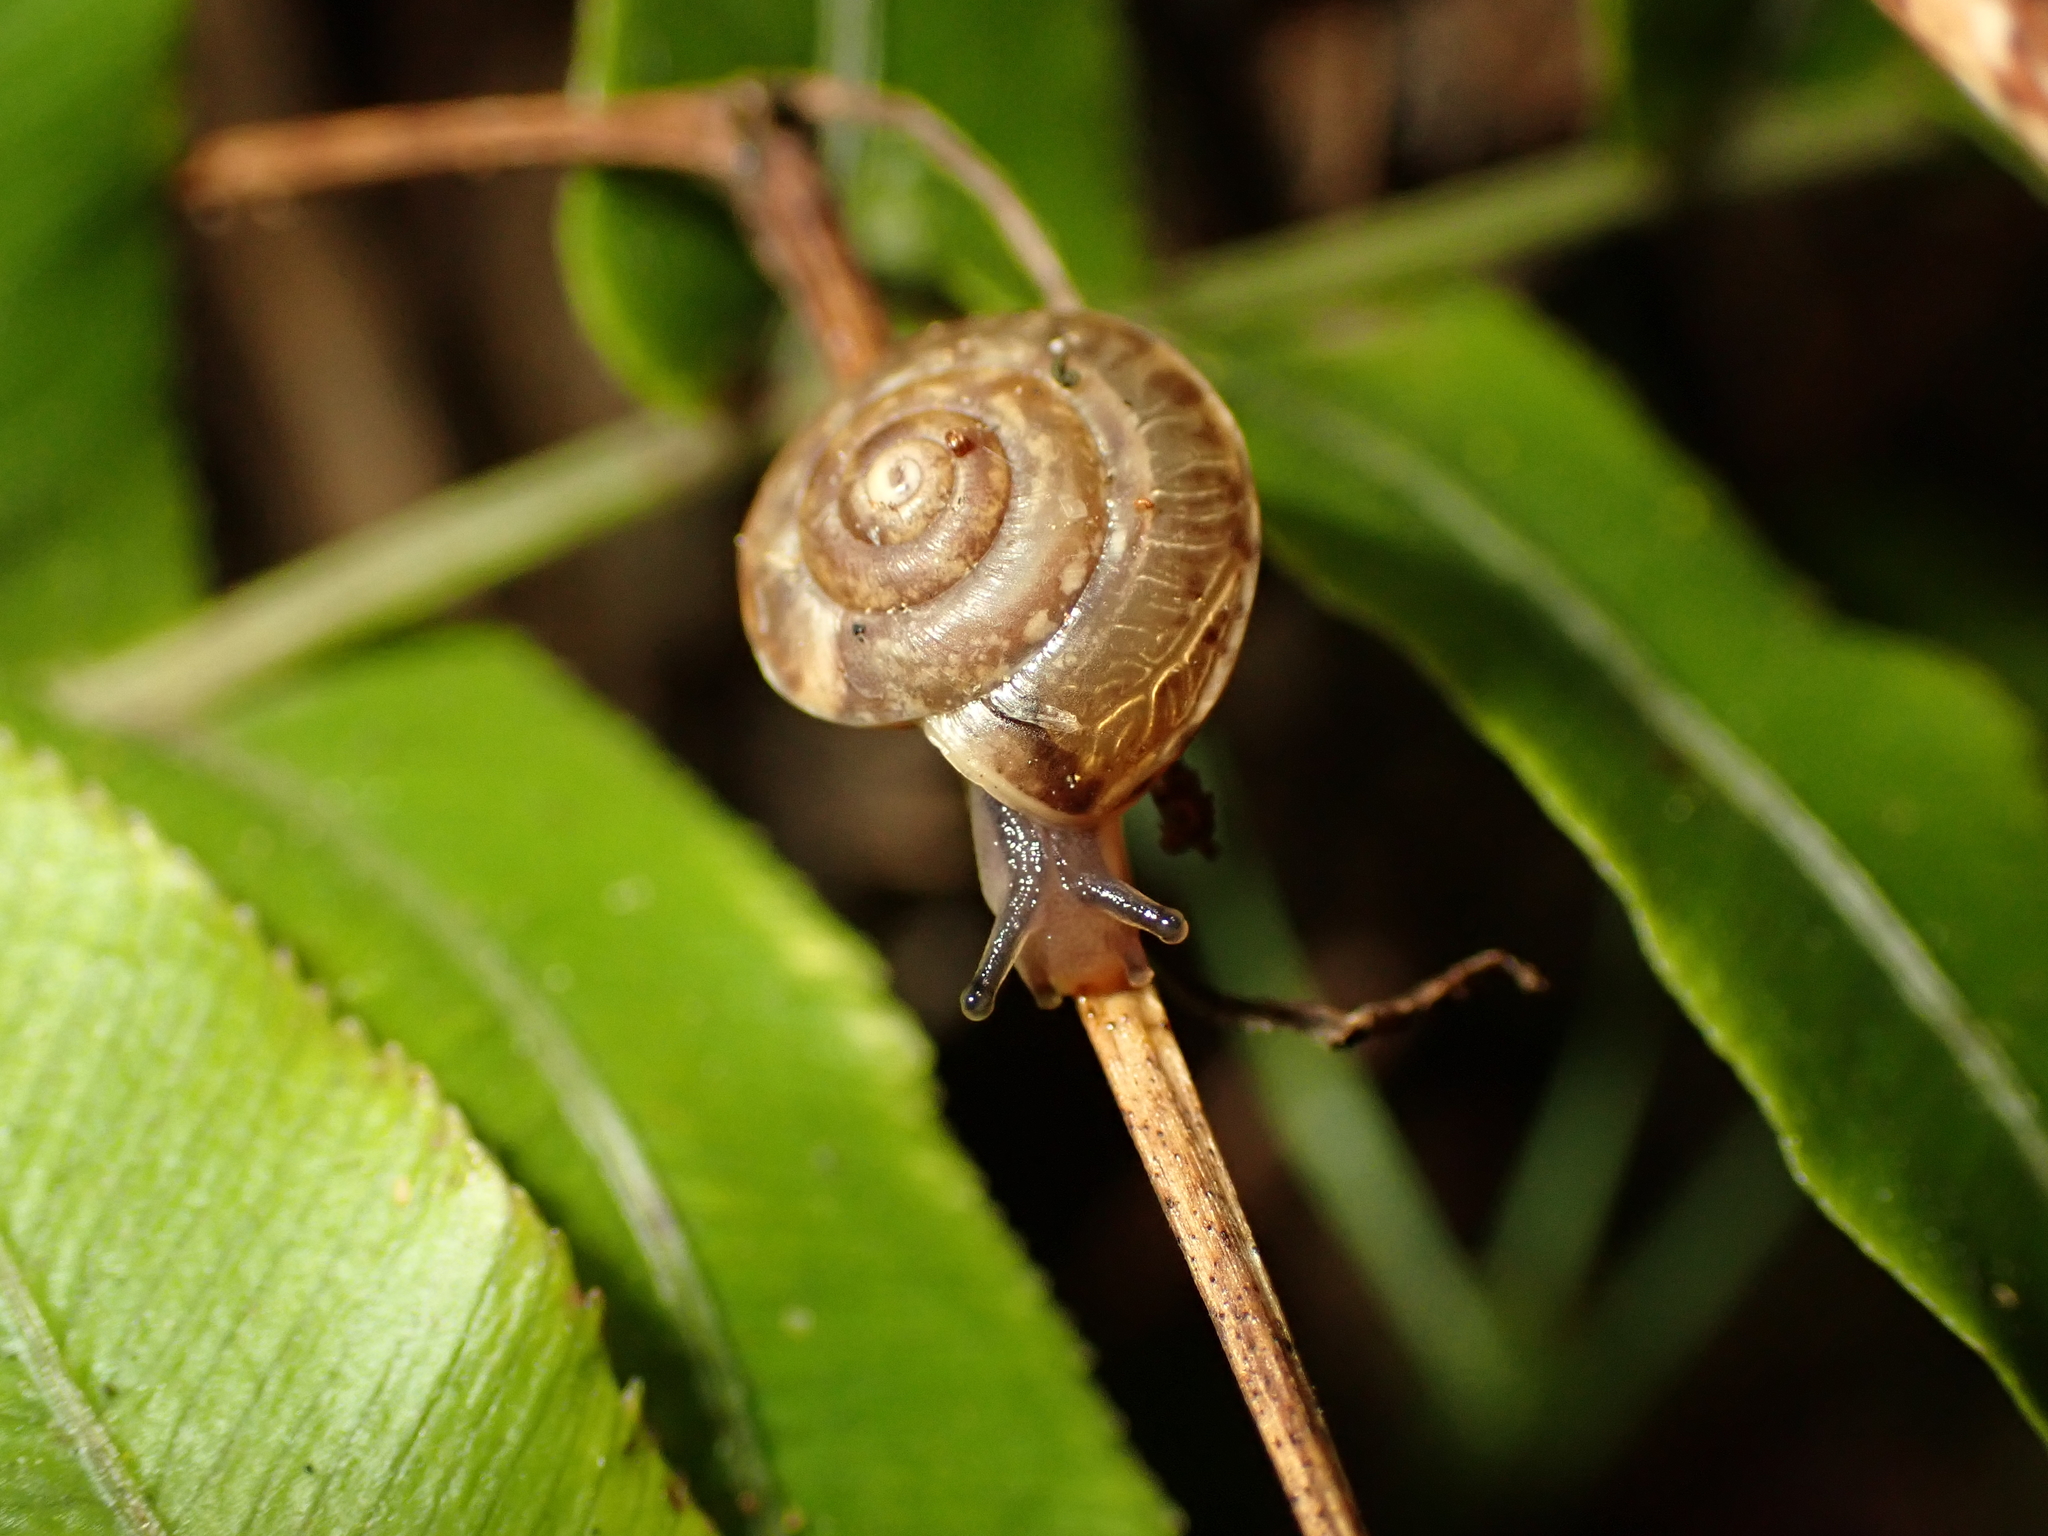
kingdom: Animalia
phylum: Mollusca
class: Gastropoda
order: Stylommatophora
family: Hygromiidae
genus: Hygromia
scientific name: Hygromia cinctella
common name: Girdled snail
